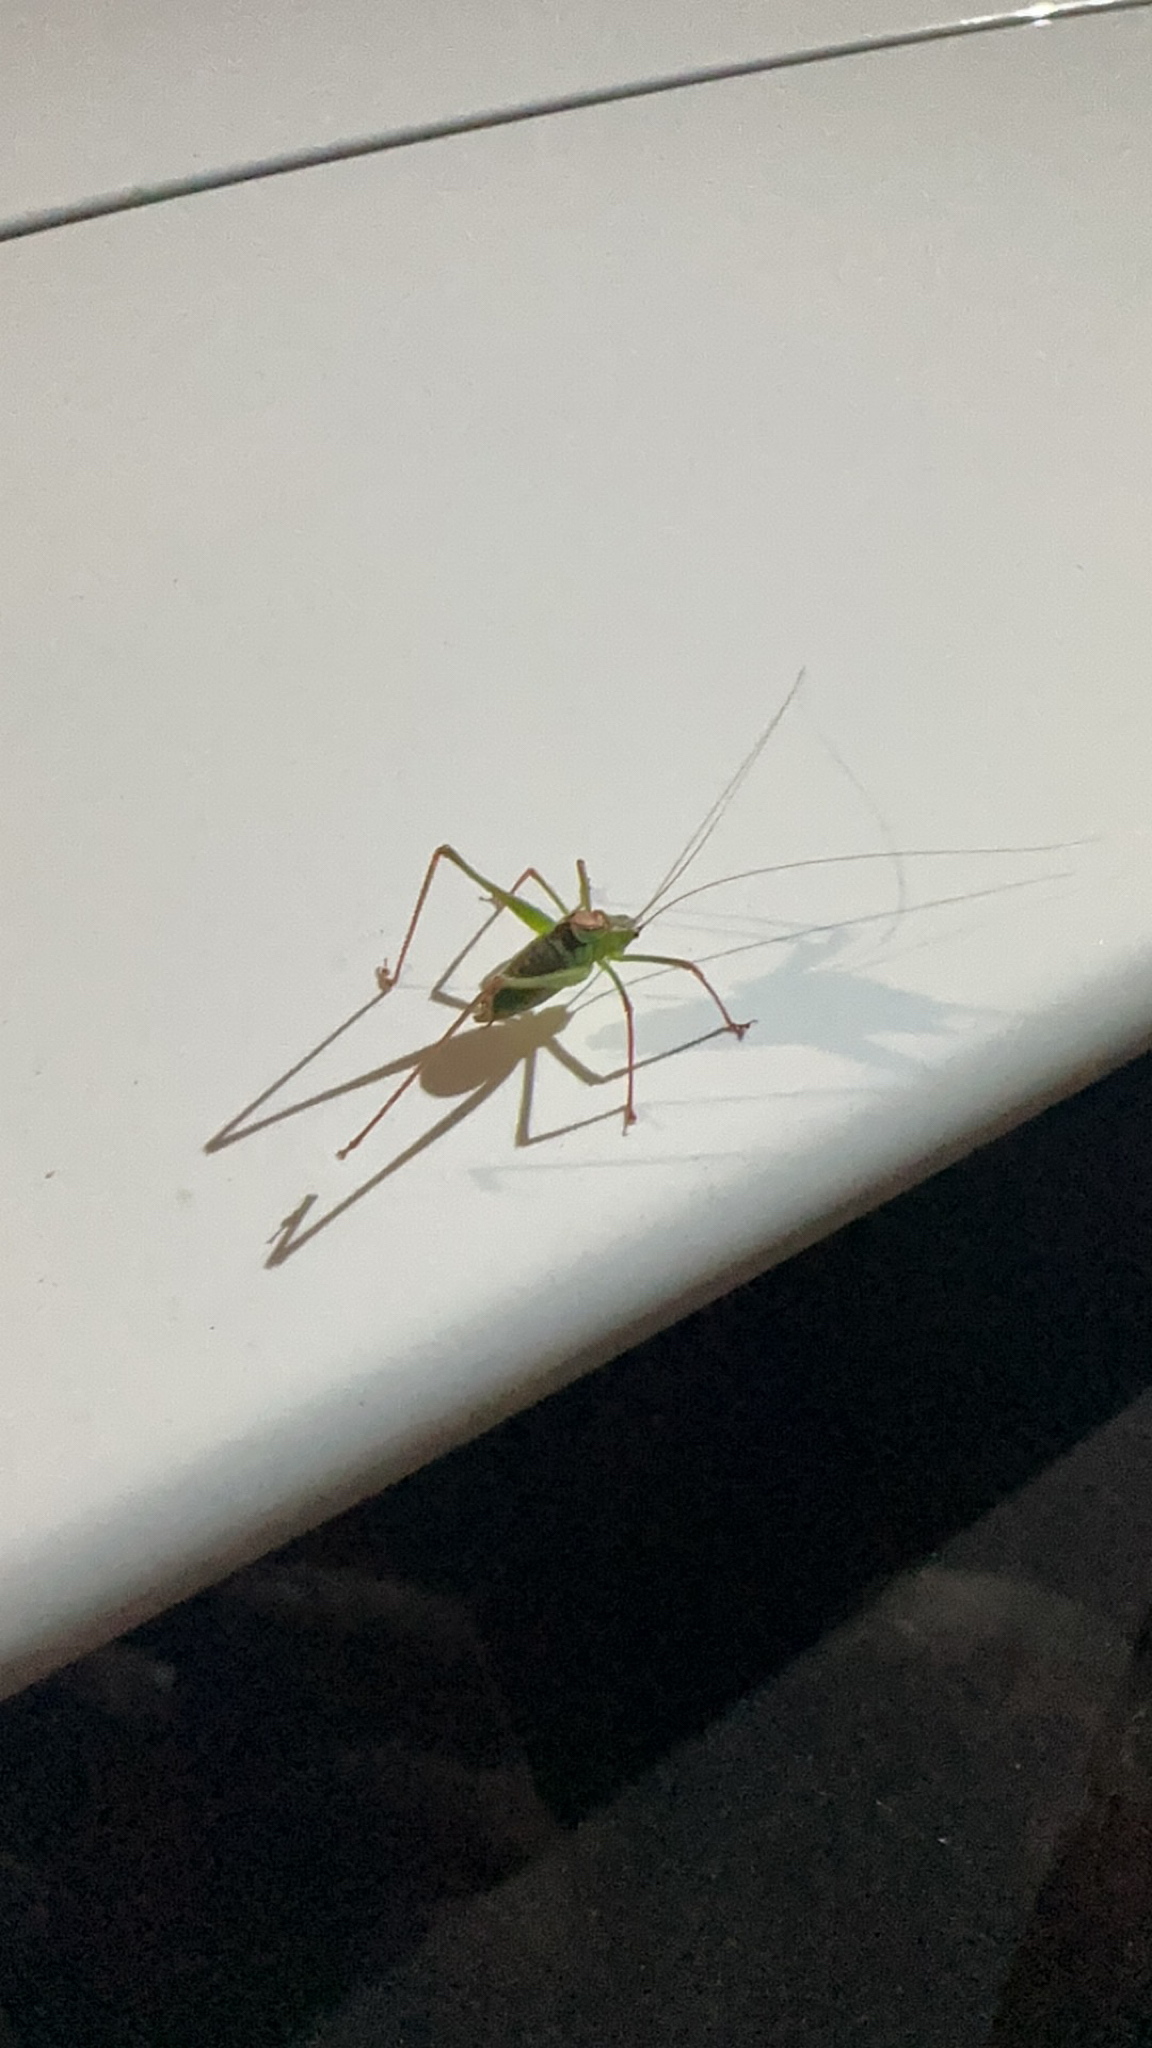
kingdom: Animalia
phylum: Arthropoda
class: Insecta
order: Orthoptera
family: Tettigoniidae
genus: Leptophyes
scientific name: Leptophyes punctatissima
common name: Speckled bush-cricket
